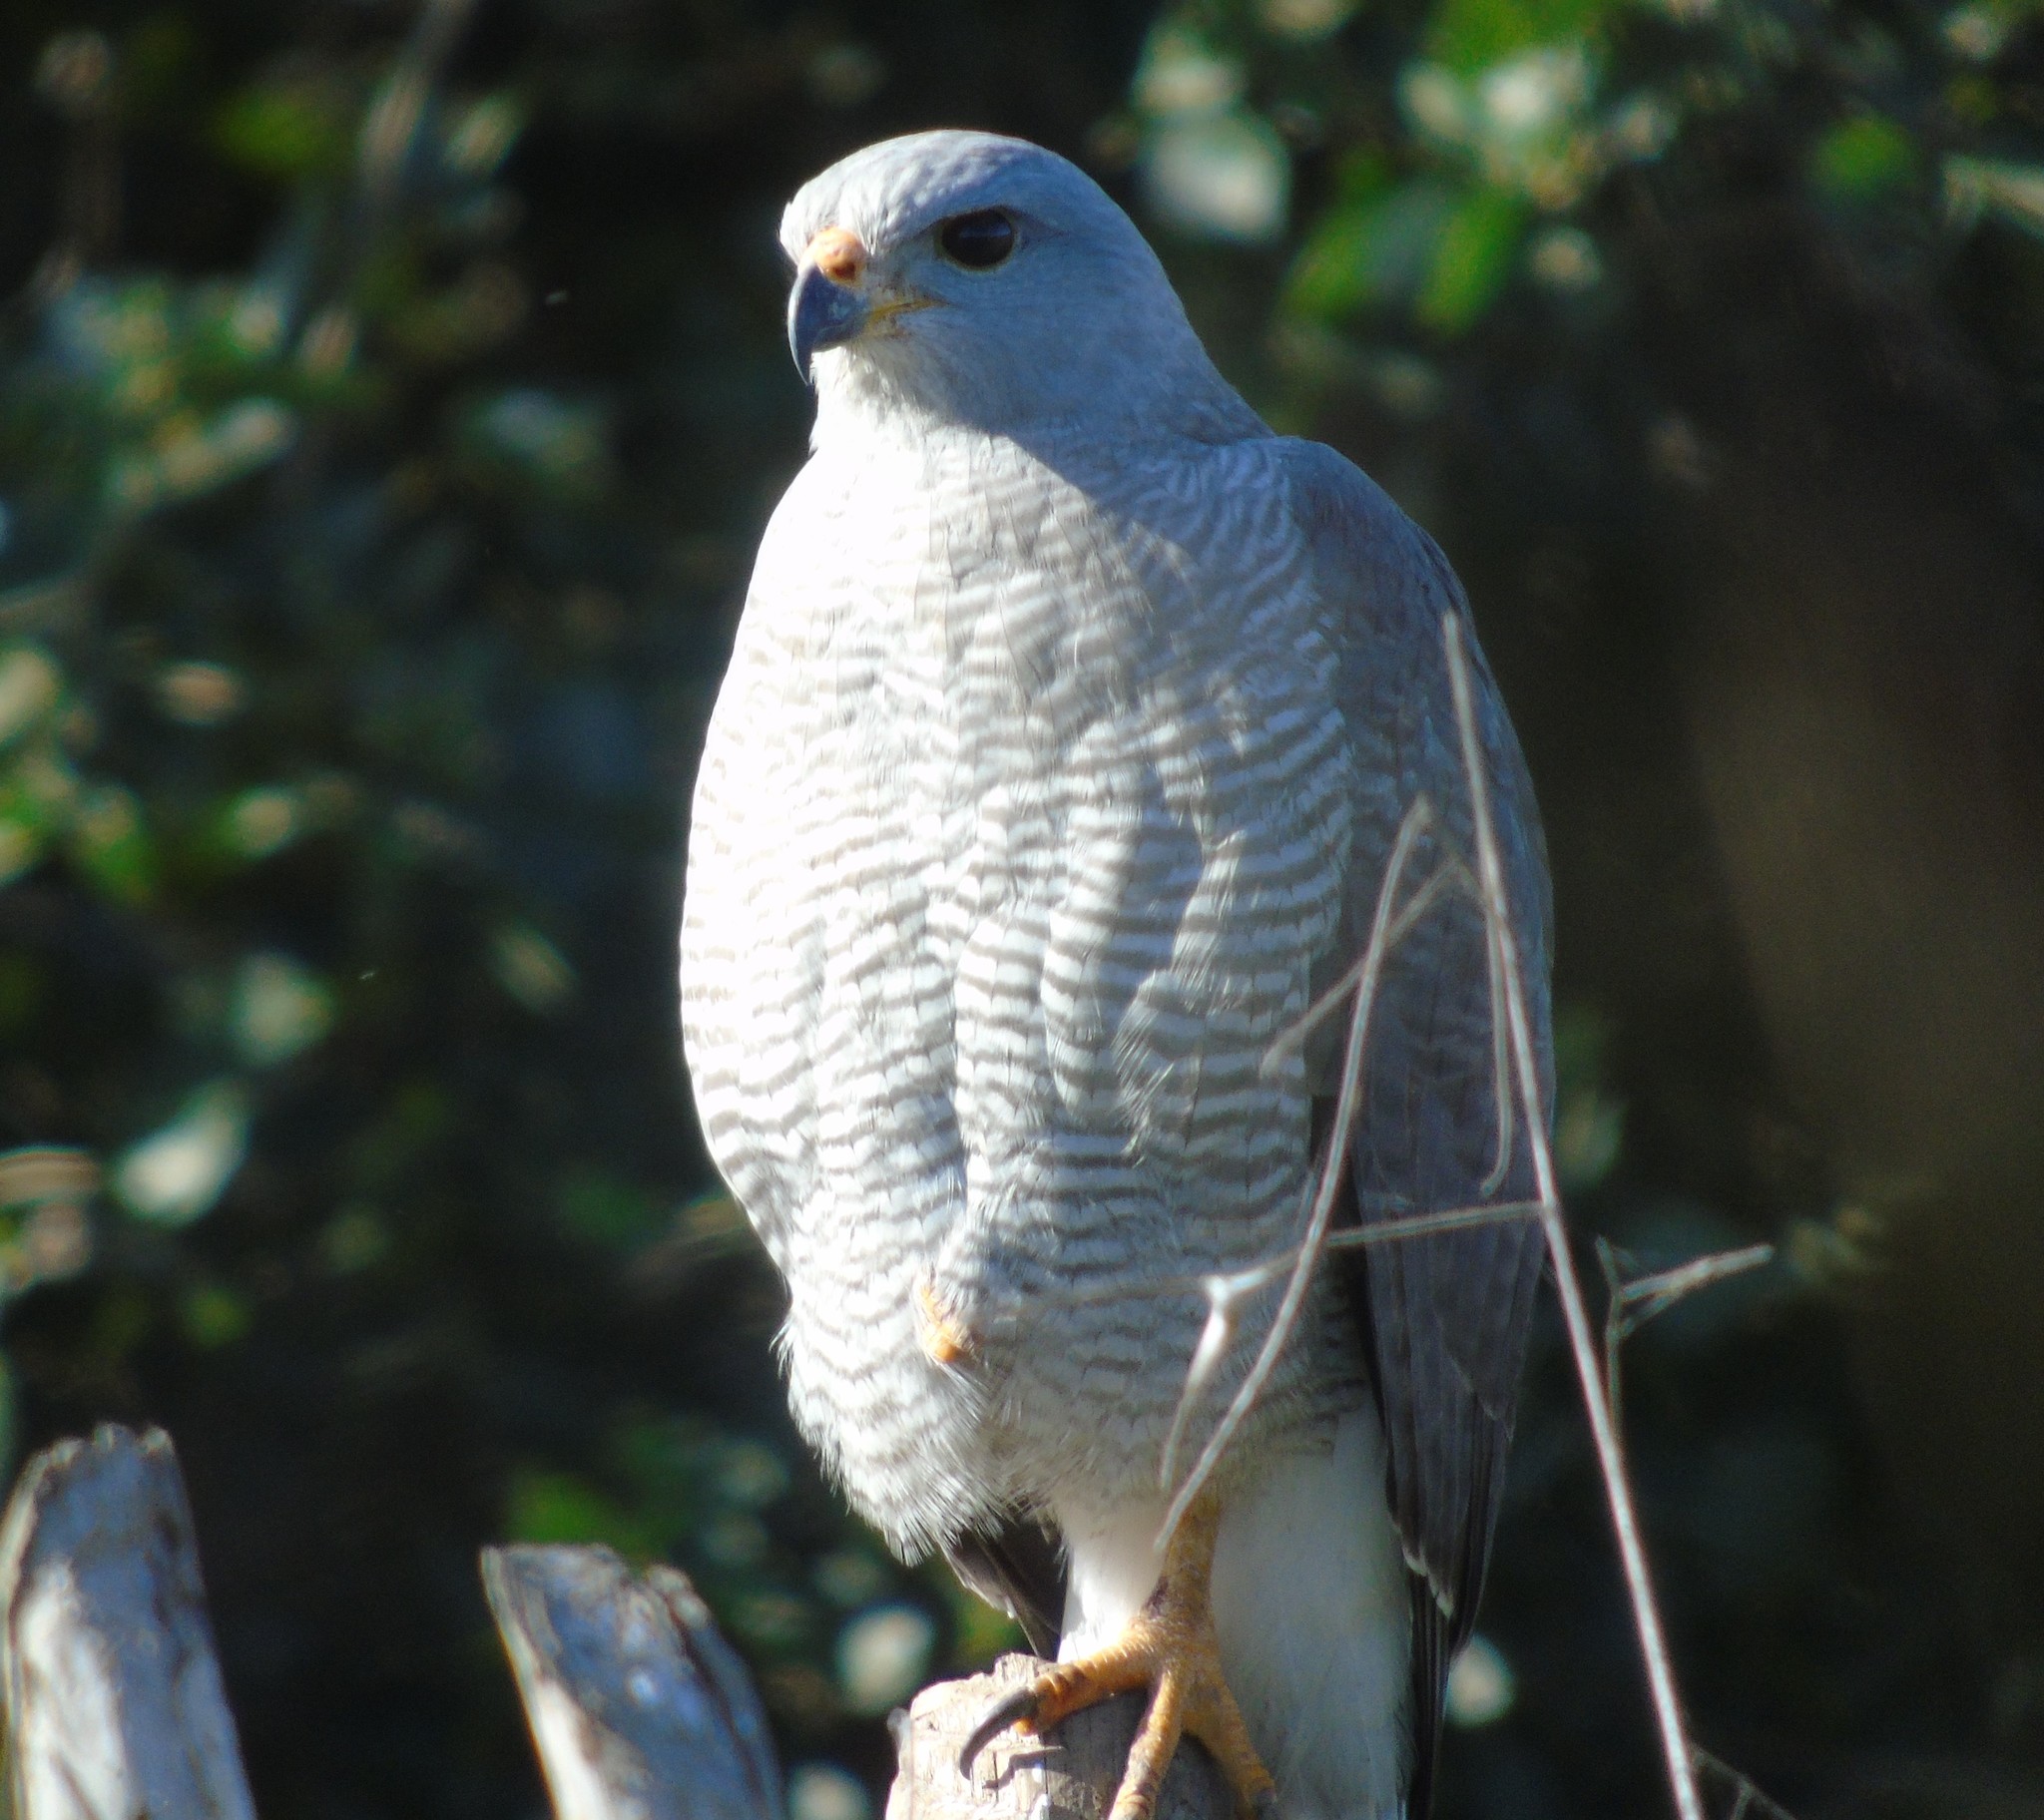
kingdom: Animalia
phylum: Chordata
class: Aves
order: Accipitriformes
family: Accipitridae
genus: Buteo
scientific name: Buteo nitidus
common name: Grey-lined hawk
